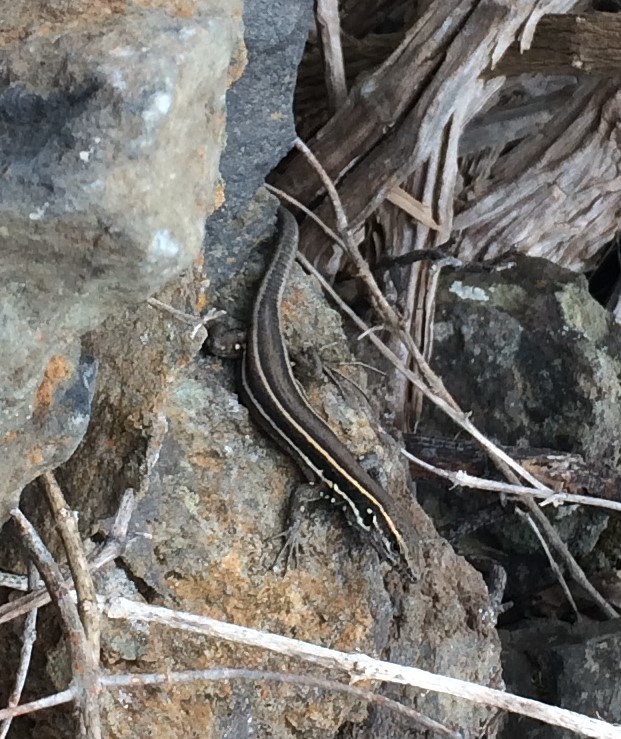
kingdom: Animalia
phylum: Chordata
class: Squamata
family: Lacertidae
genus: Gallotia
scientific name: Gallotia caesaris
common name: Boettger's lizard
